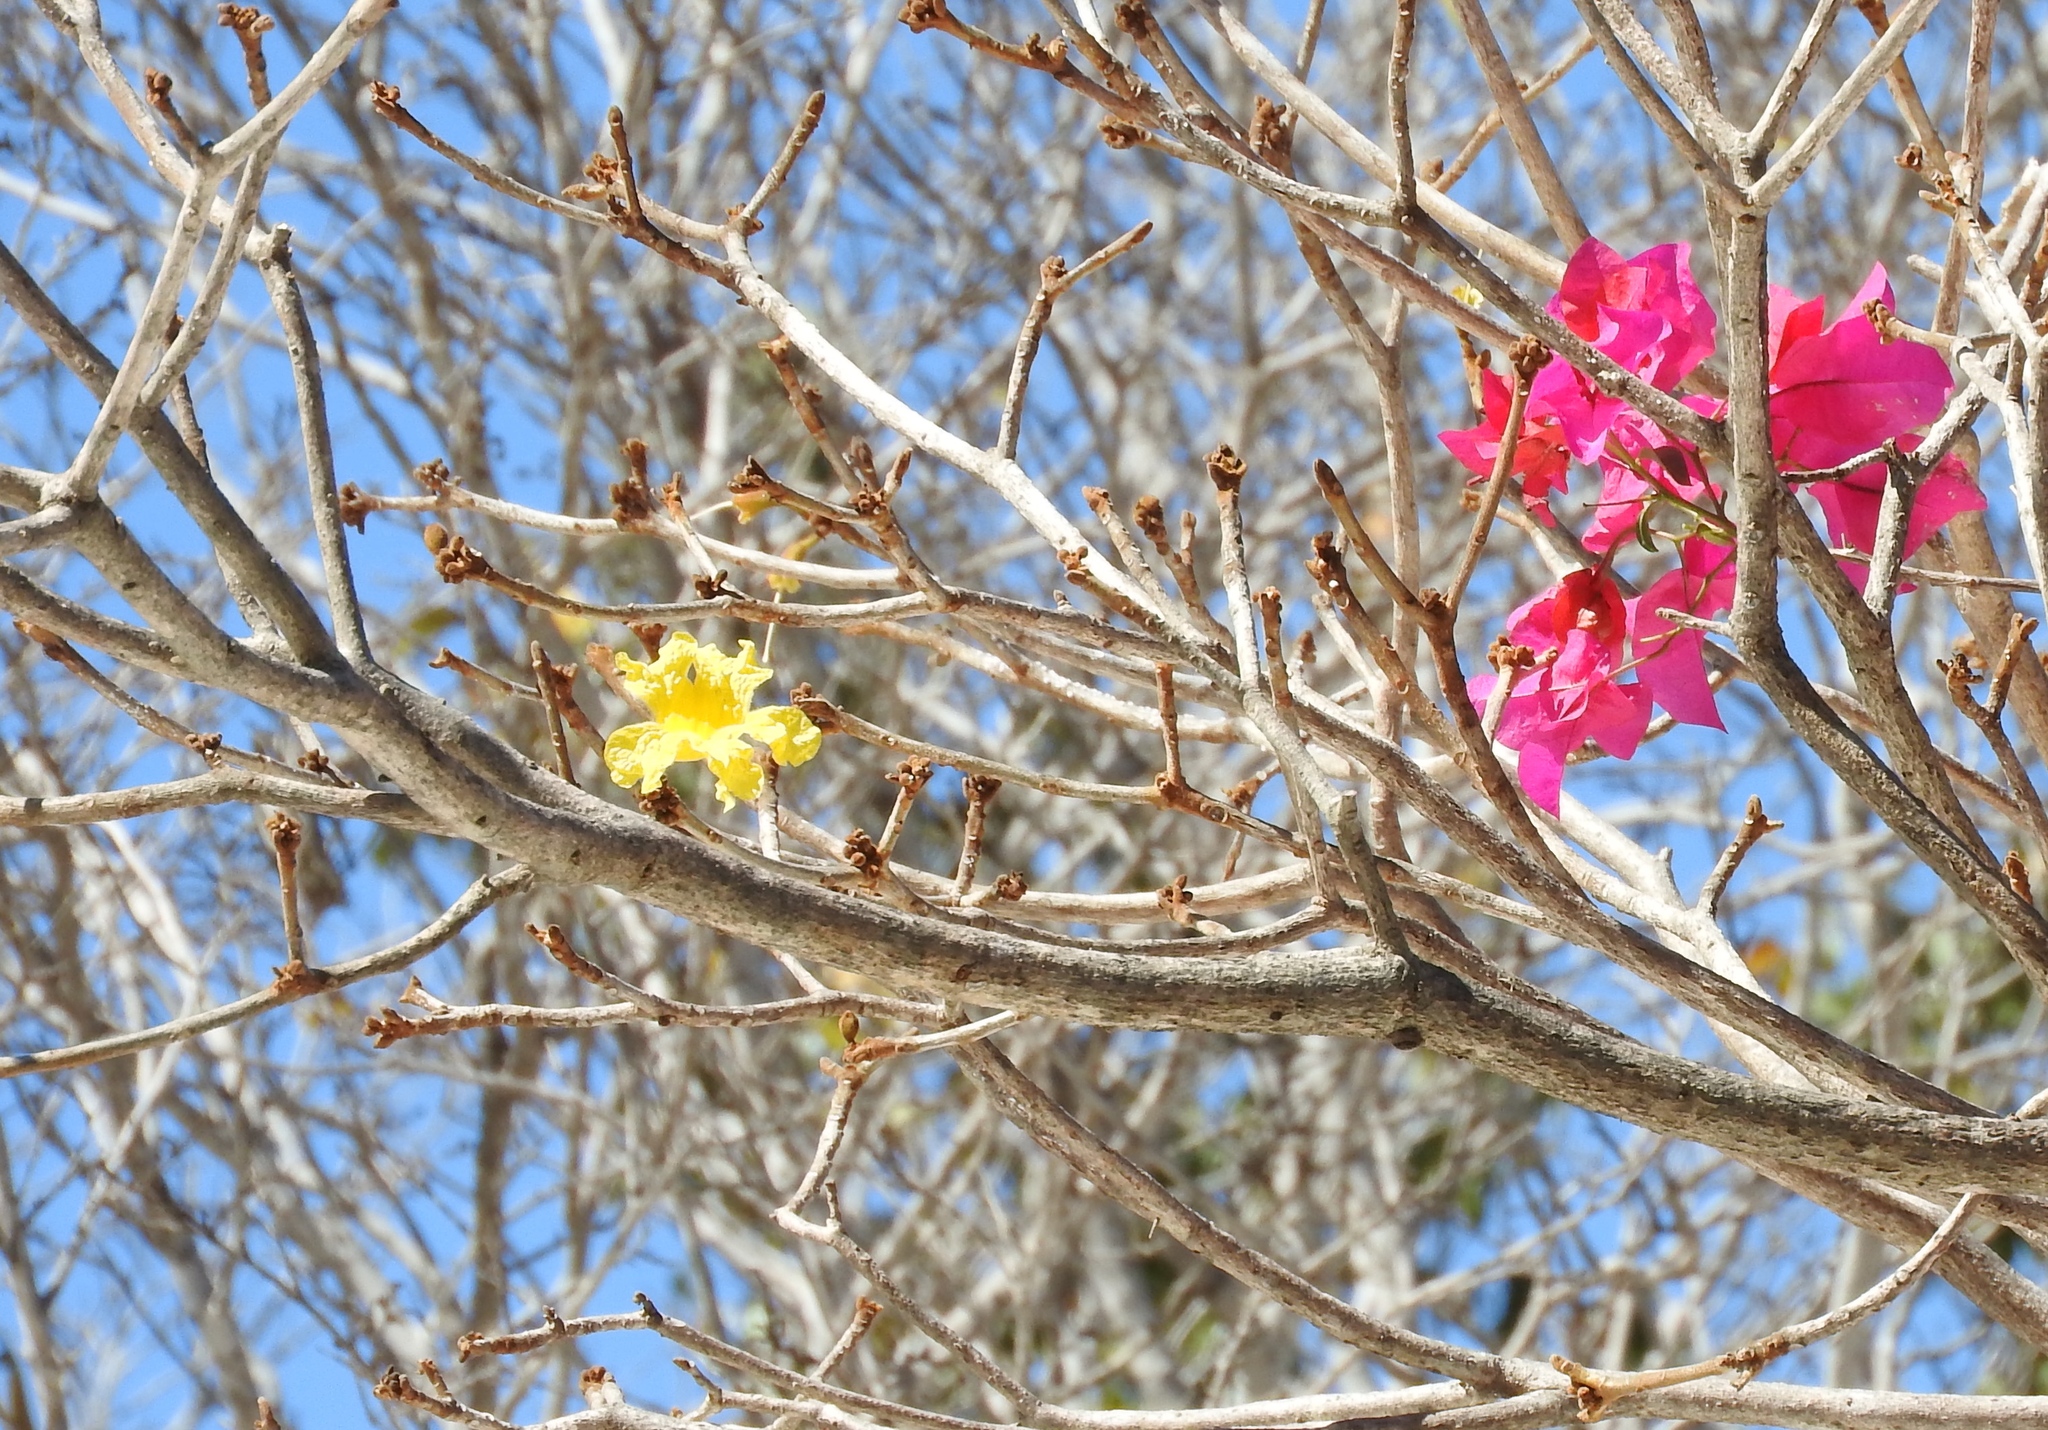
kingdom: Plantae
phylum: Tracheophyta
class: Magnoliopsida
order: Lamiales
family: Bignoniaceae
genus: Handroanthus
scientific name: Handroanthus chrysanthus
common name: Trumpet trees
